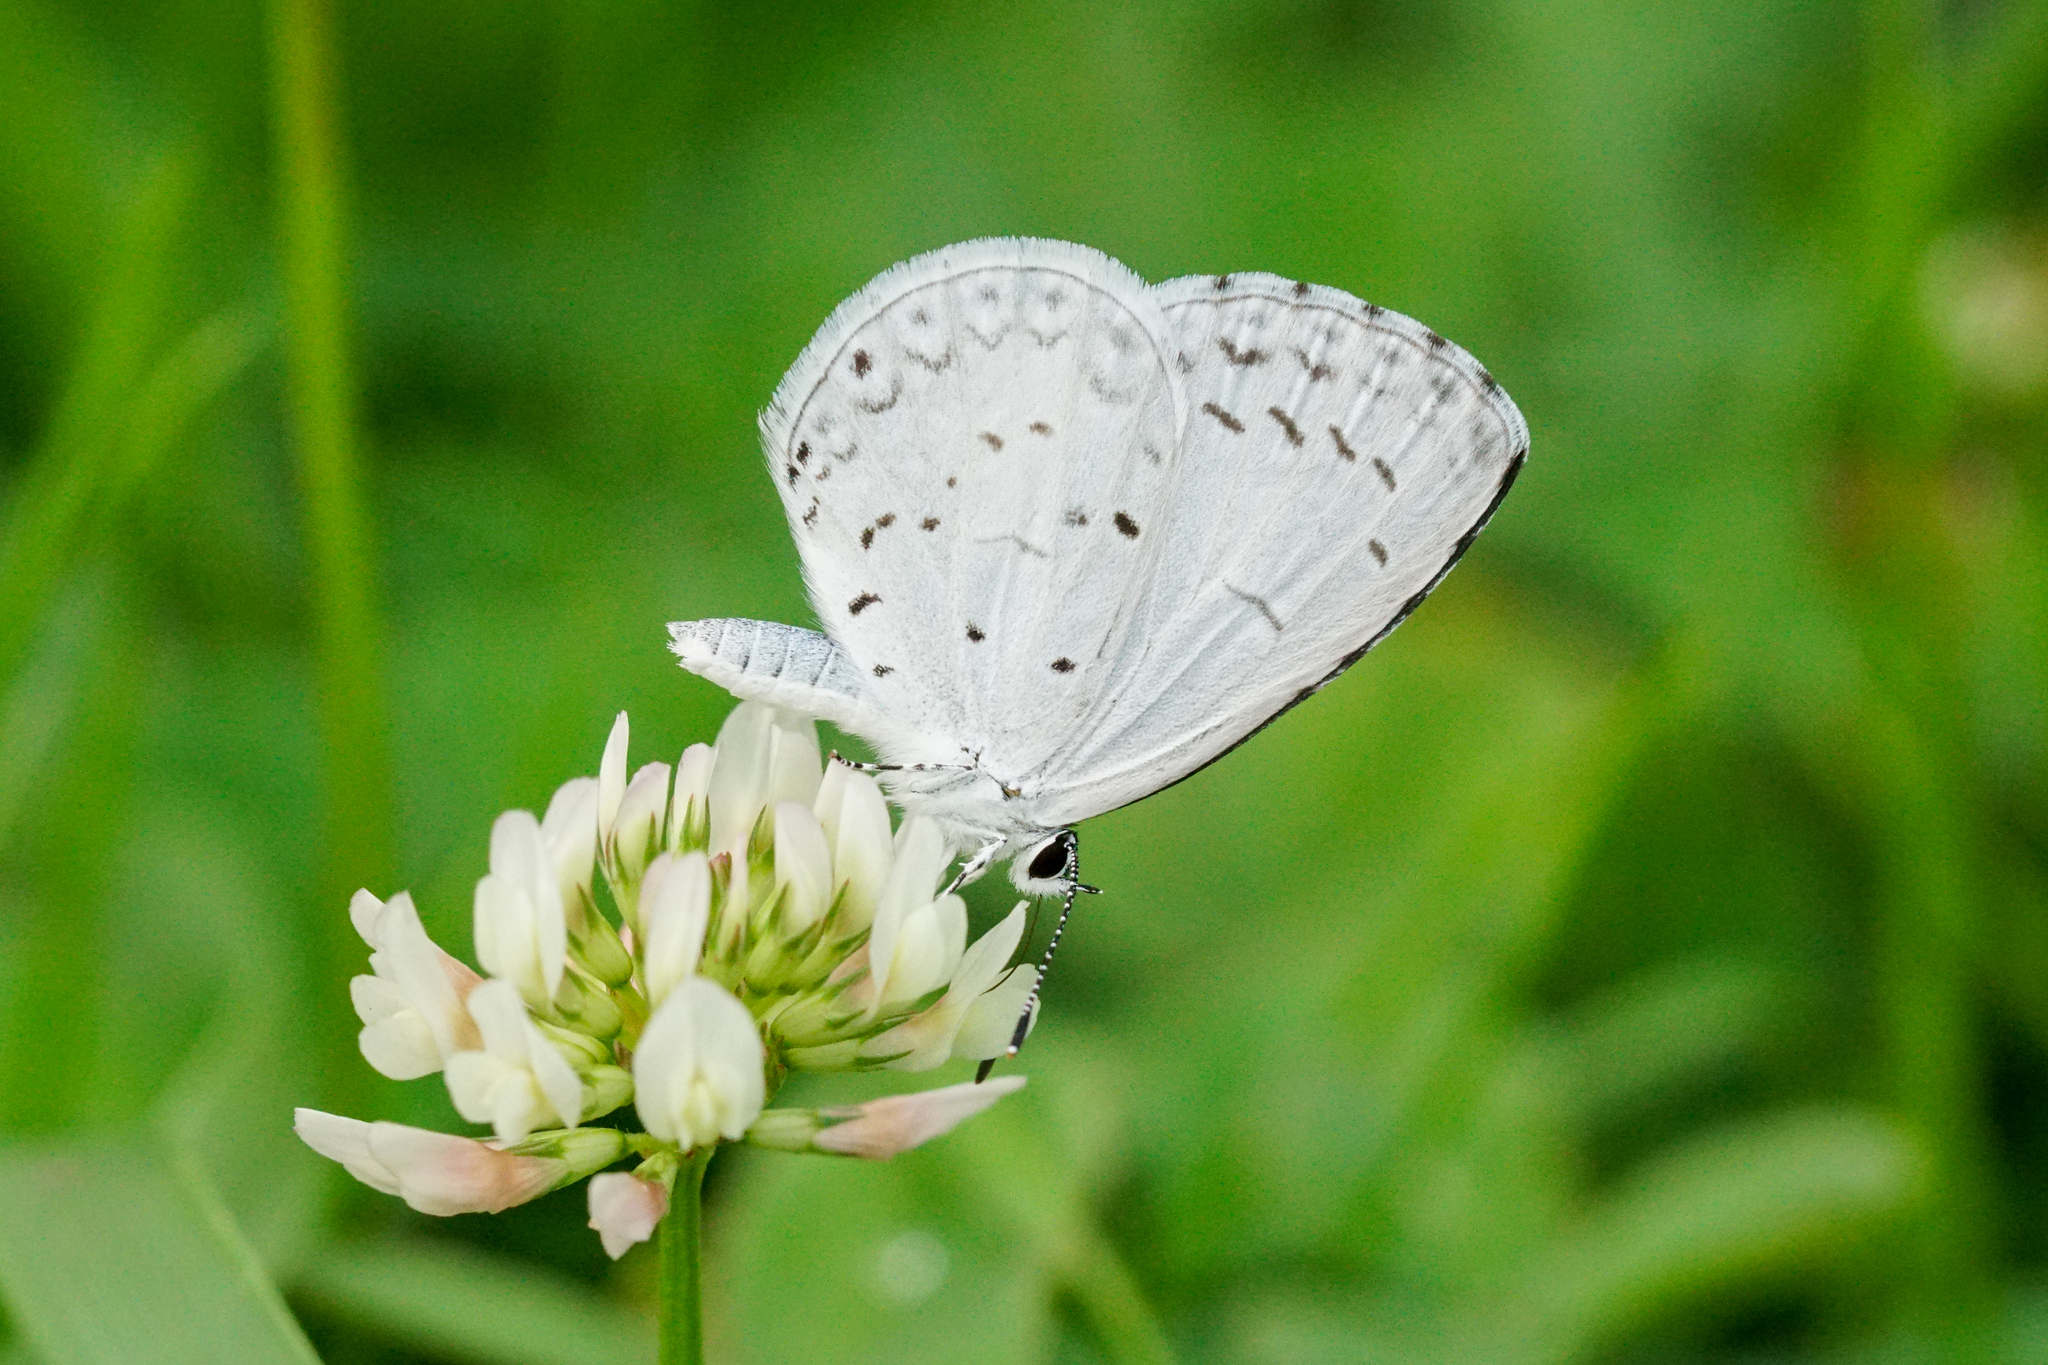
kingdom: Animalia
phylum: Arthropoda
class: Insecta
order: Lepidoptera
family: Lycaenidae
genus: Cyaniris
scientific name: Cyaniris neglecta
